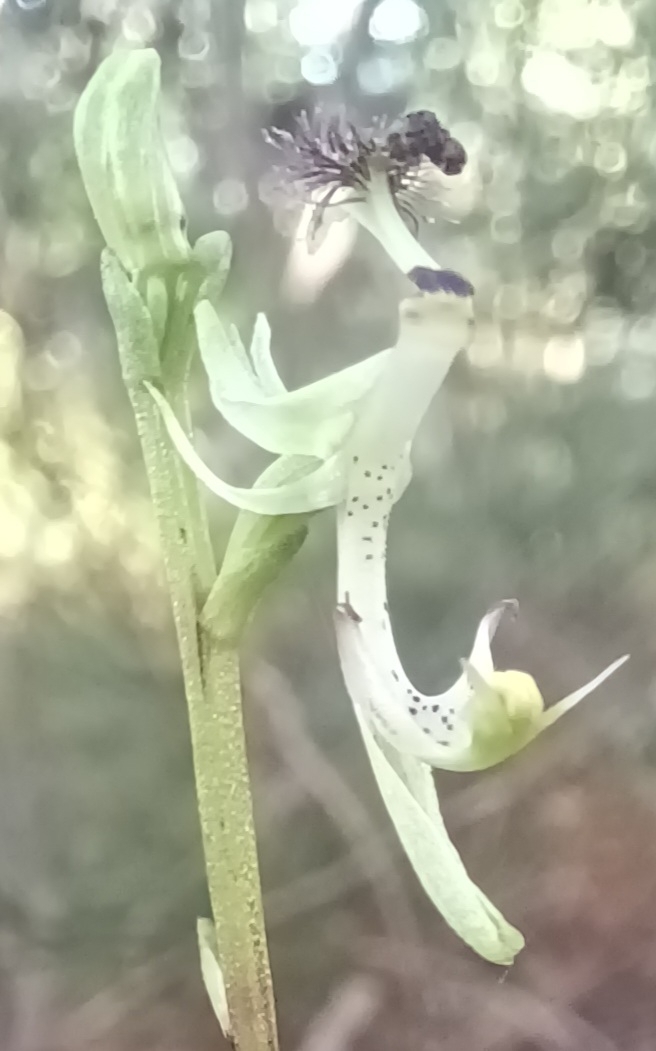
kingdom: Plantae
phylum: Tracheophyta
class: Liliopsida
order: Asparagales
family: Orchidaceae
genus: Arthrochilus
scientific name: Arthrochilus prolixus
